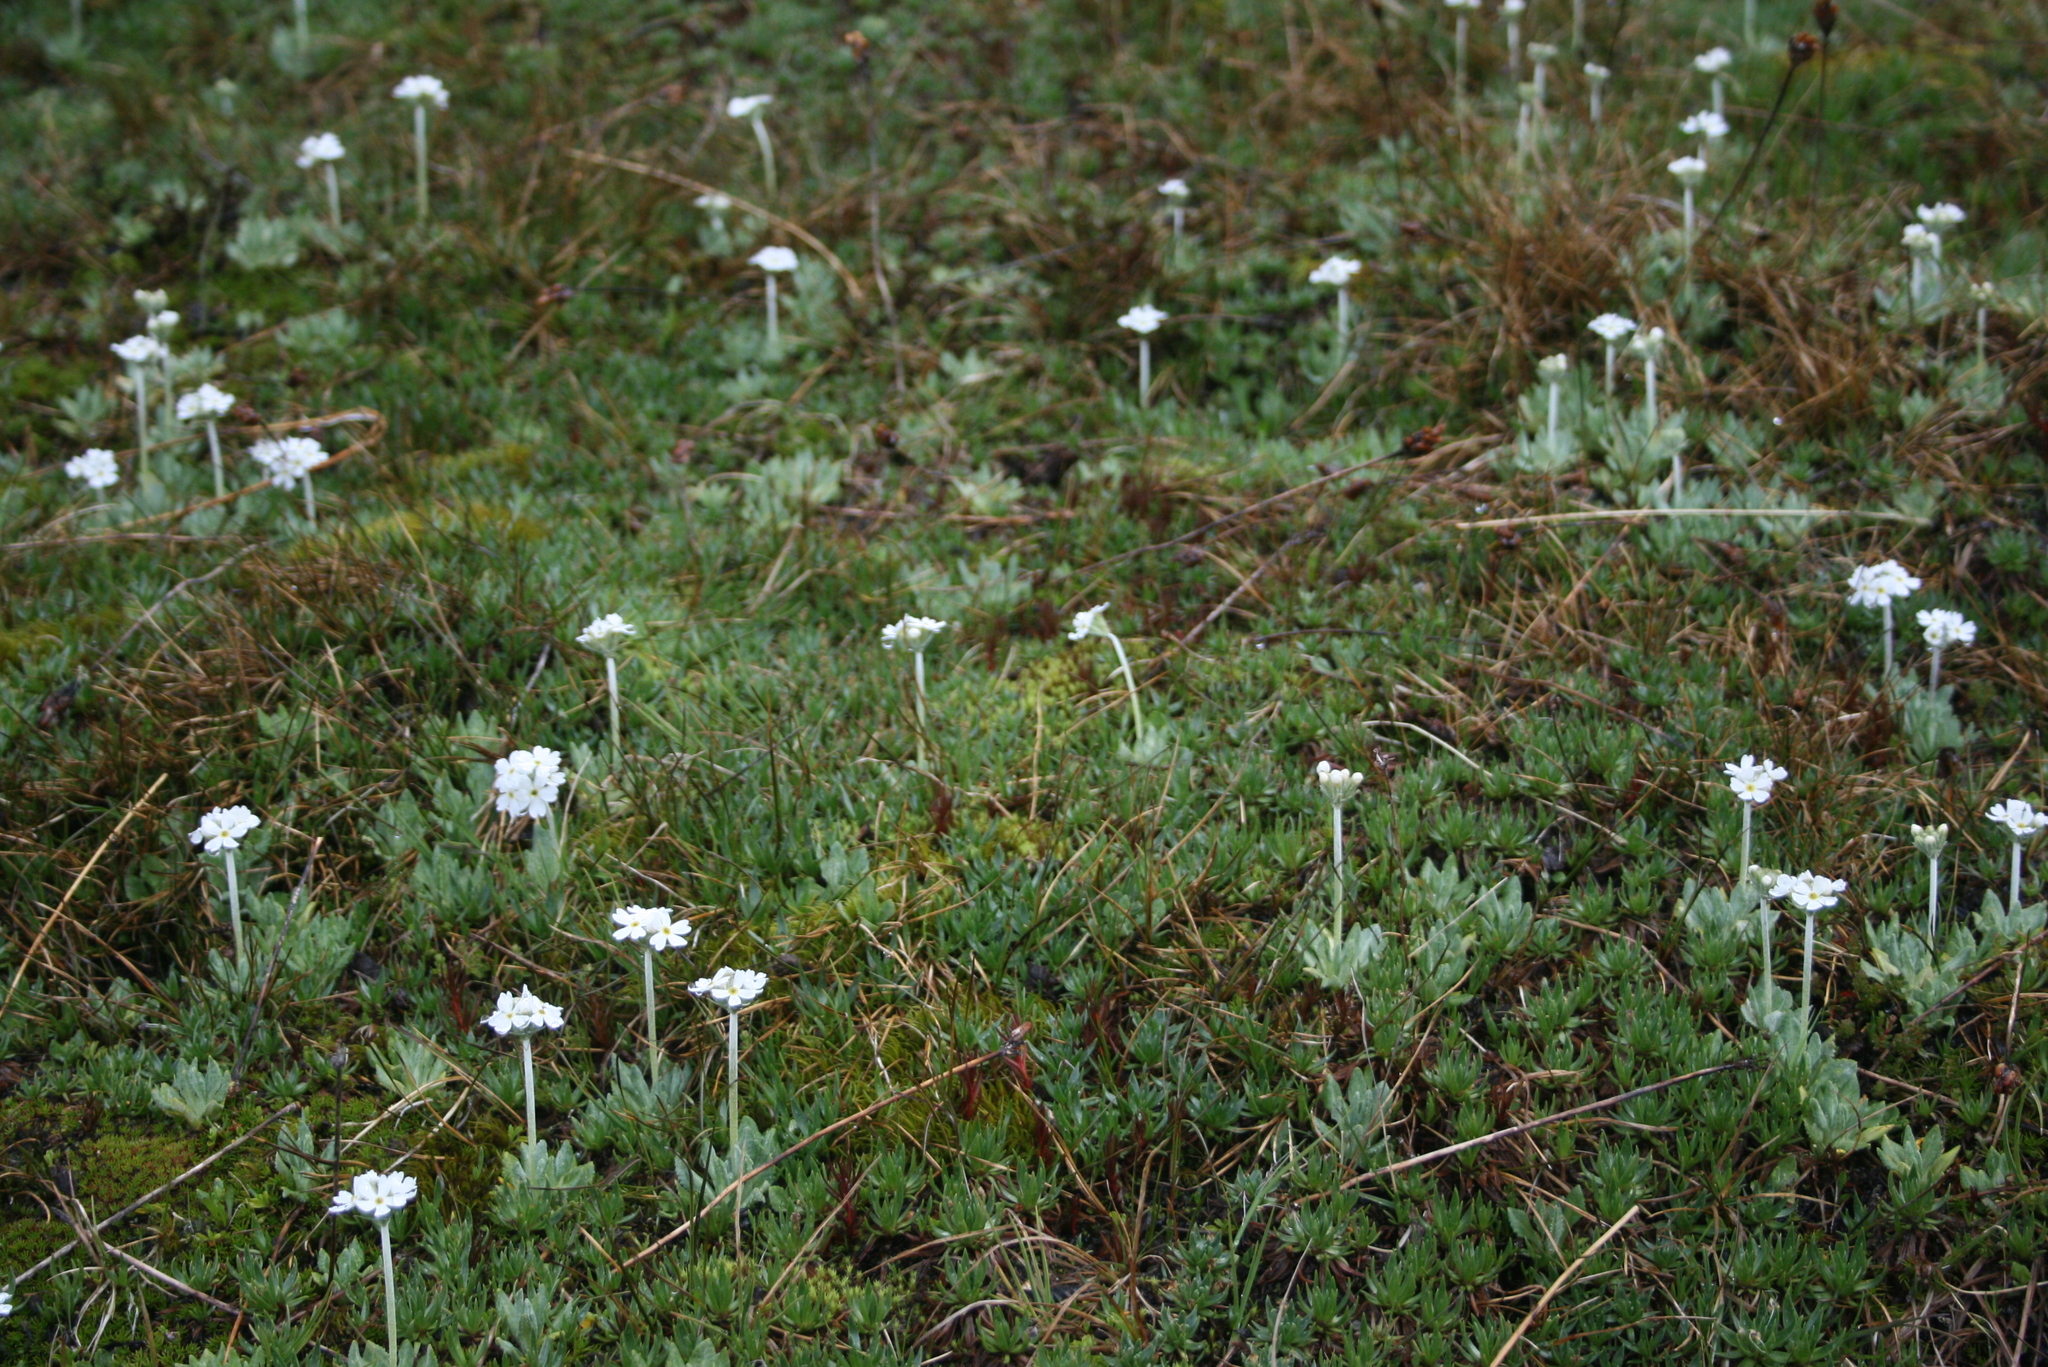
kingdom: Plantae
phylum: Tracheophyta
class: Magnoliopsida
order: Ericales
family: Primulaceae
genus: Primula
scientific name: Primula magellanica
